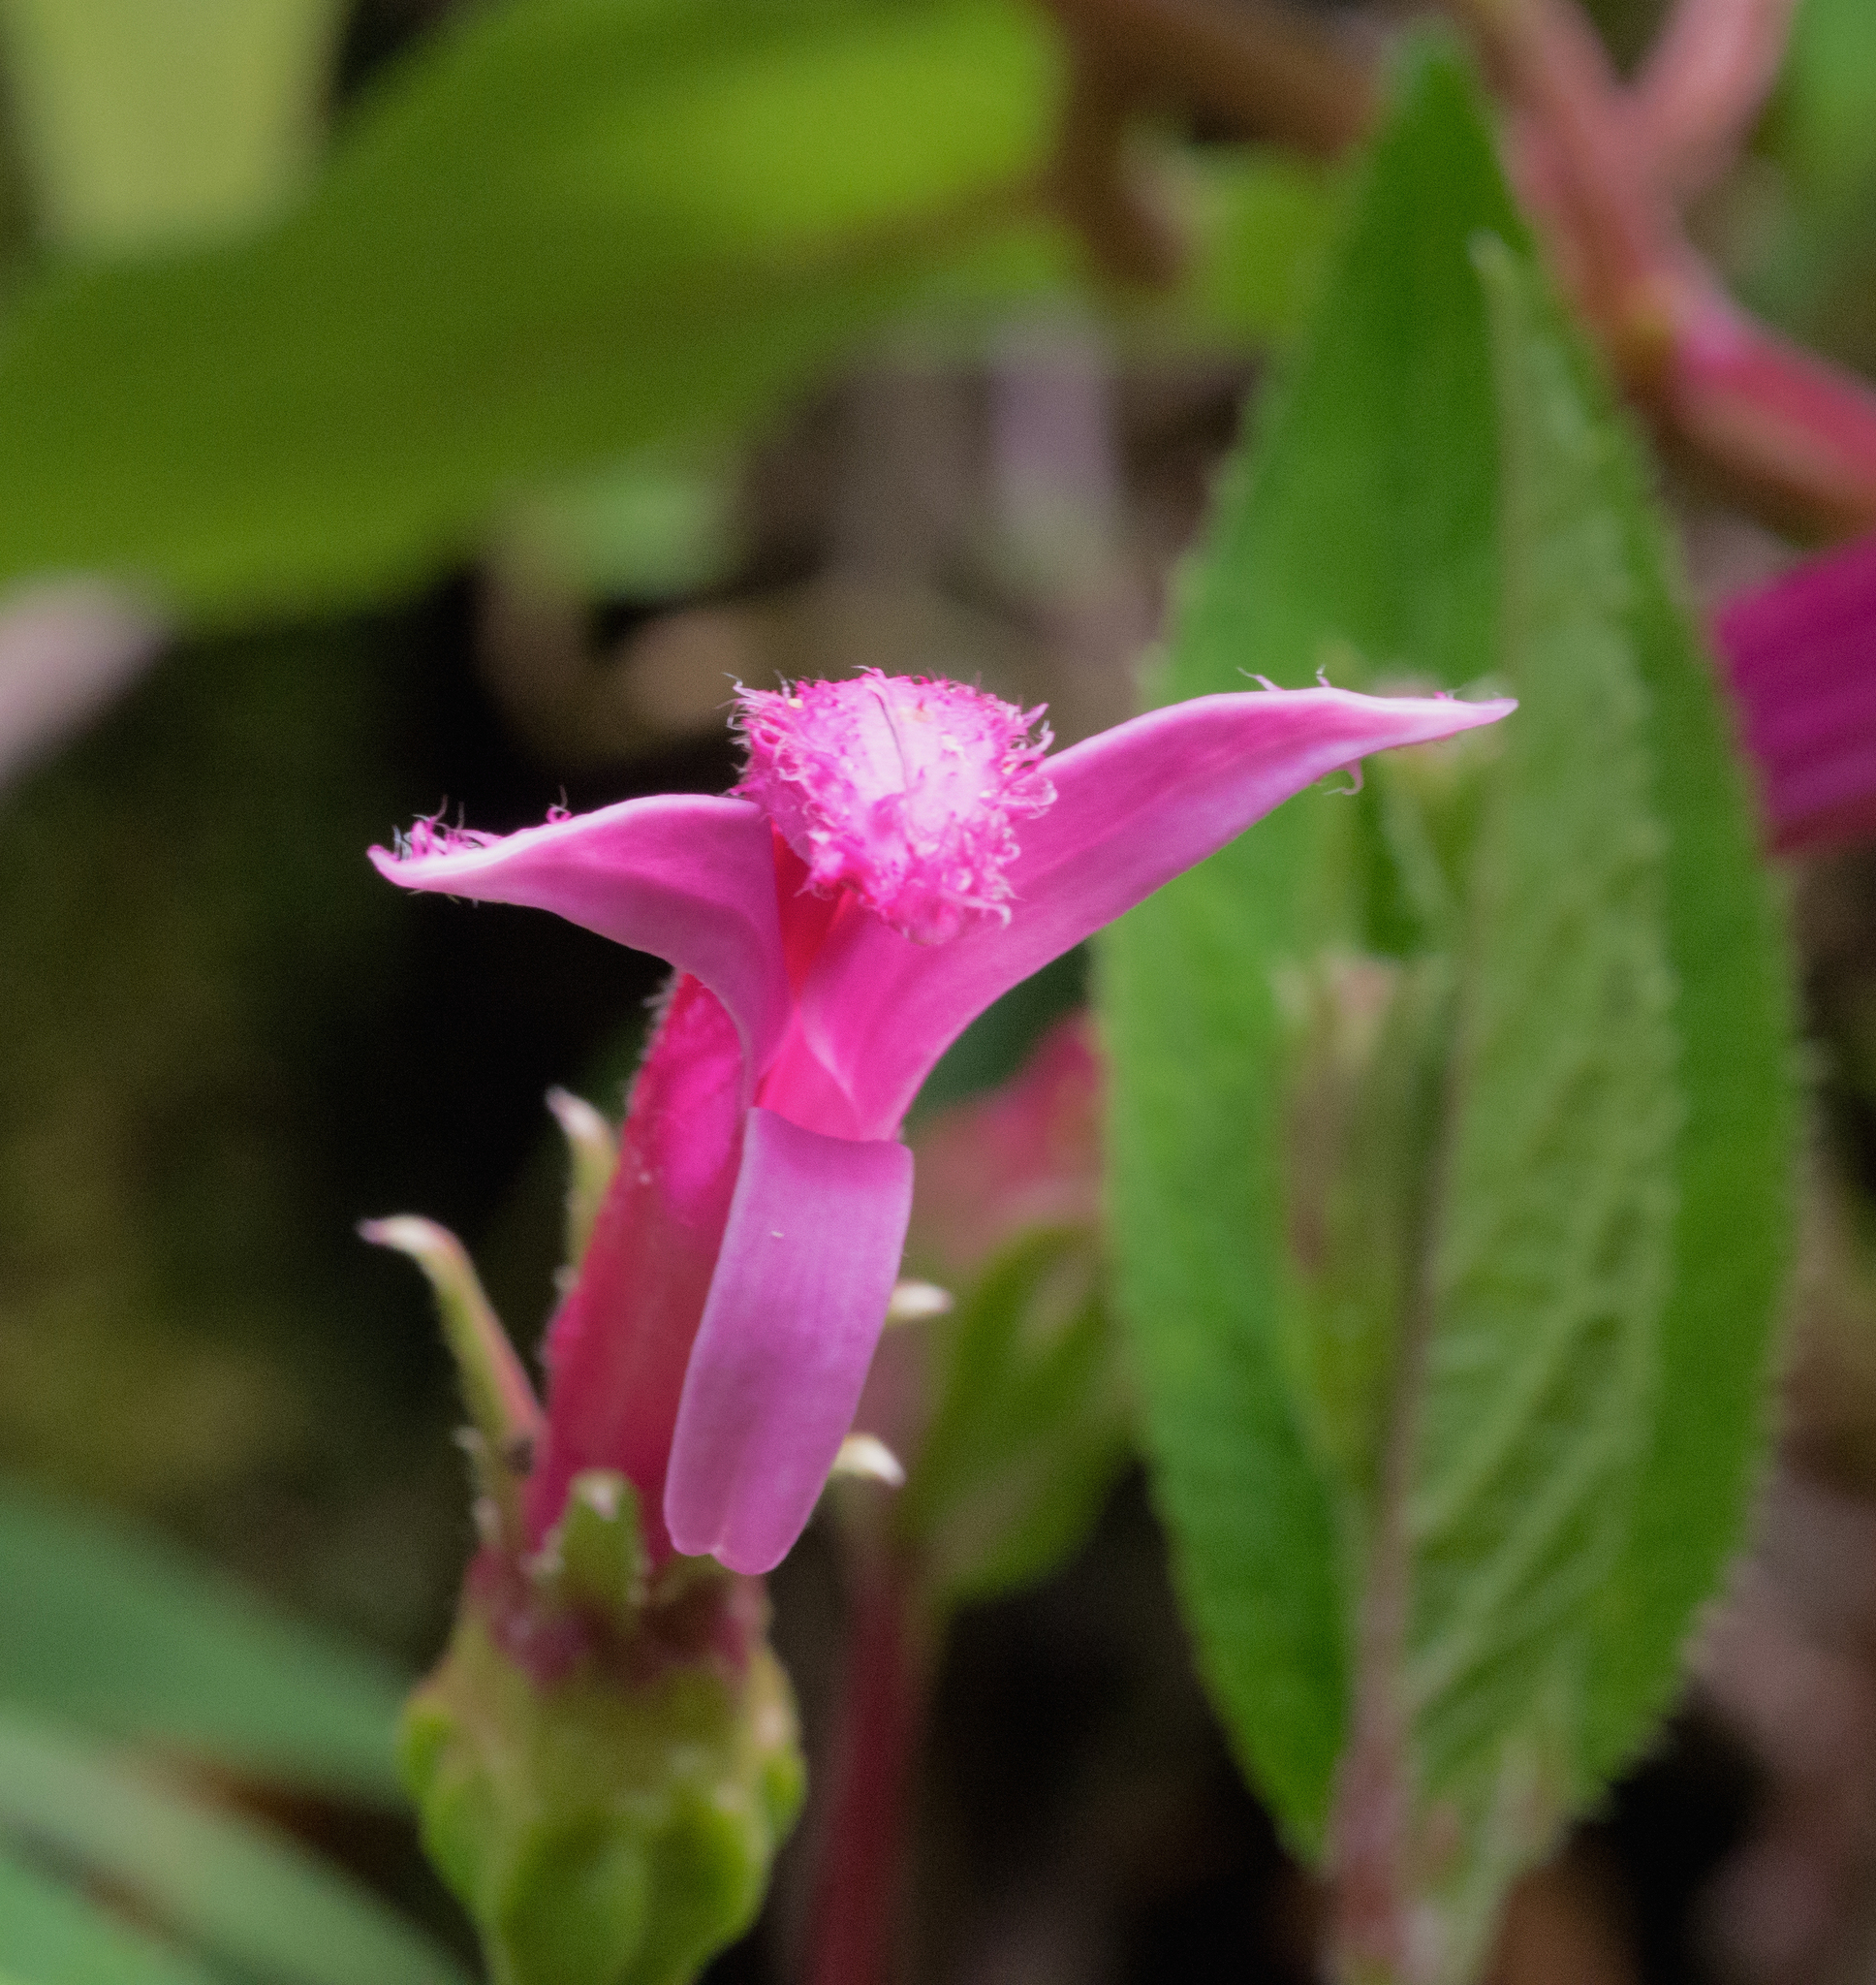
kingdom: Plantae
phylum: Tracheophyta
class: Magnoliopsida
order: Asterales
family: Campanulaceae
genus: Centropogon
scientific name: Centropogon gutierrezii
